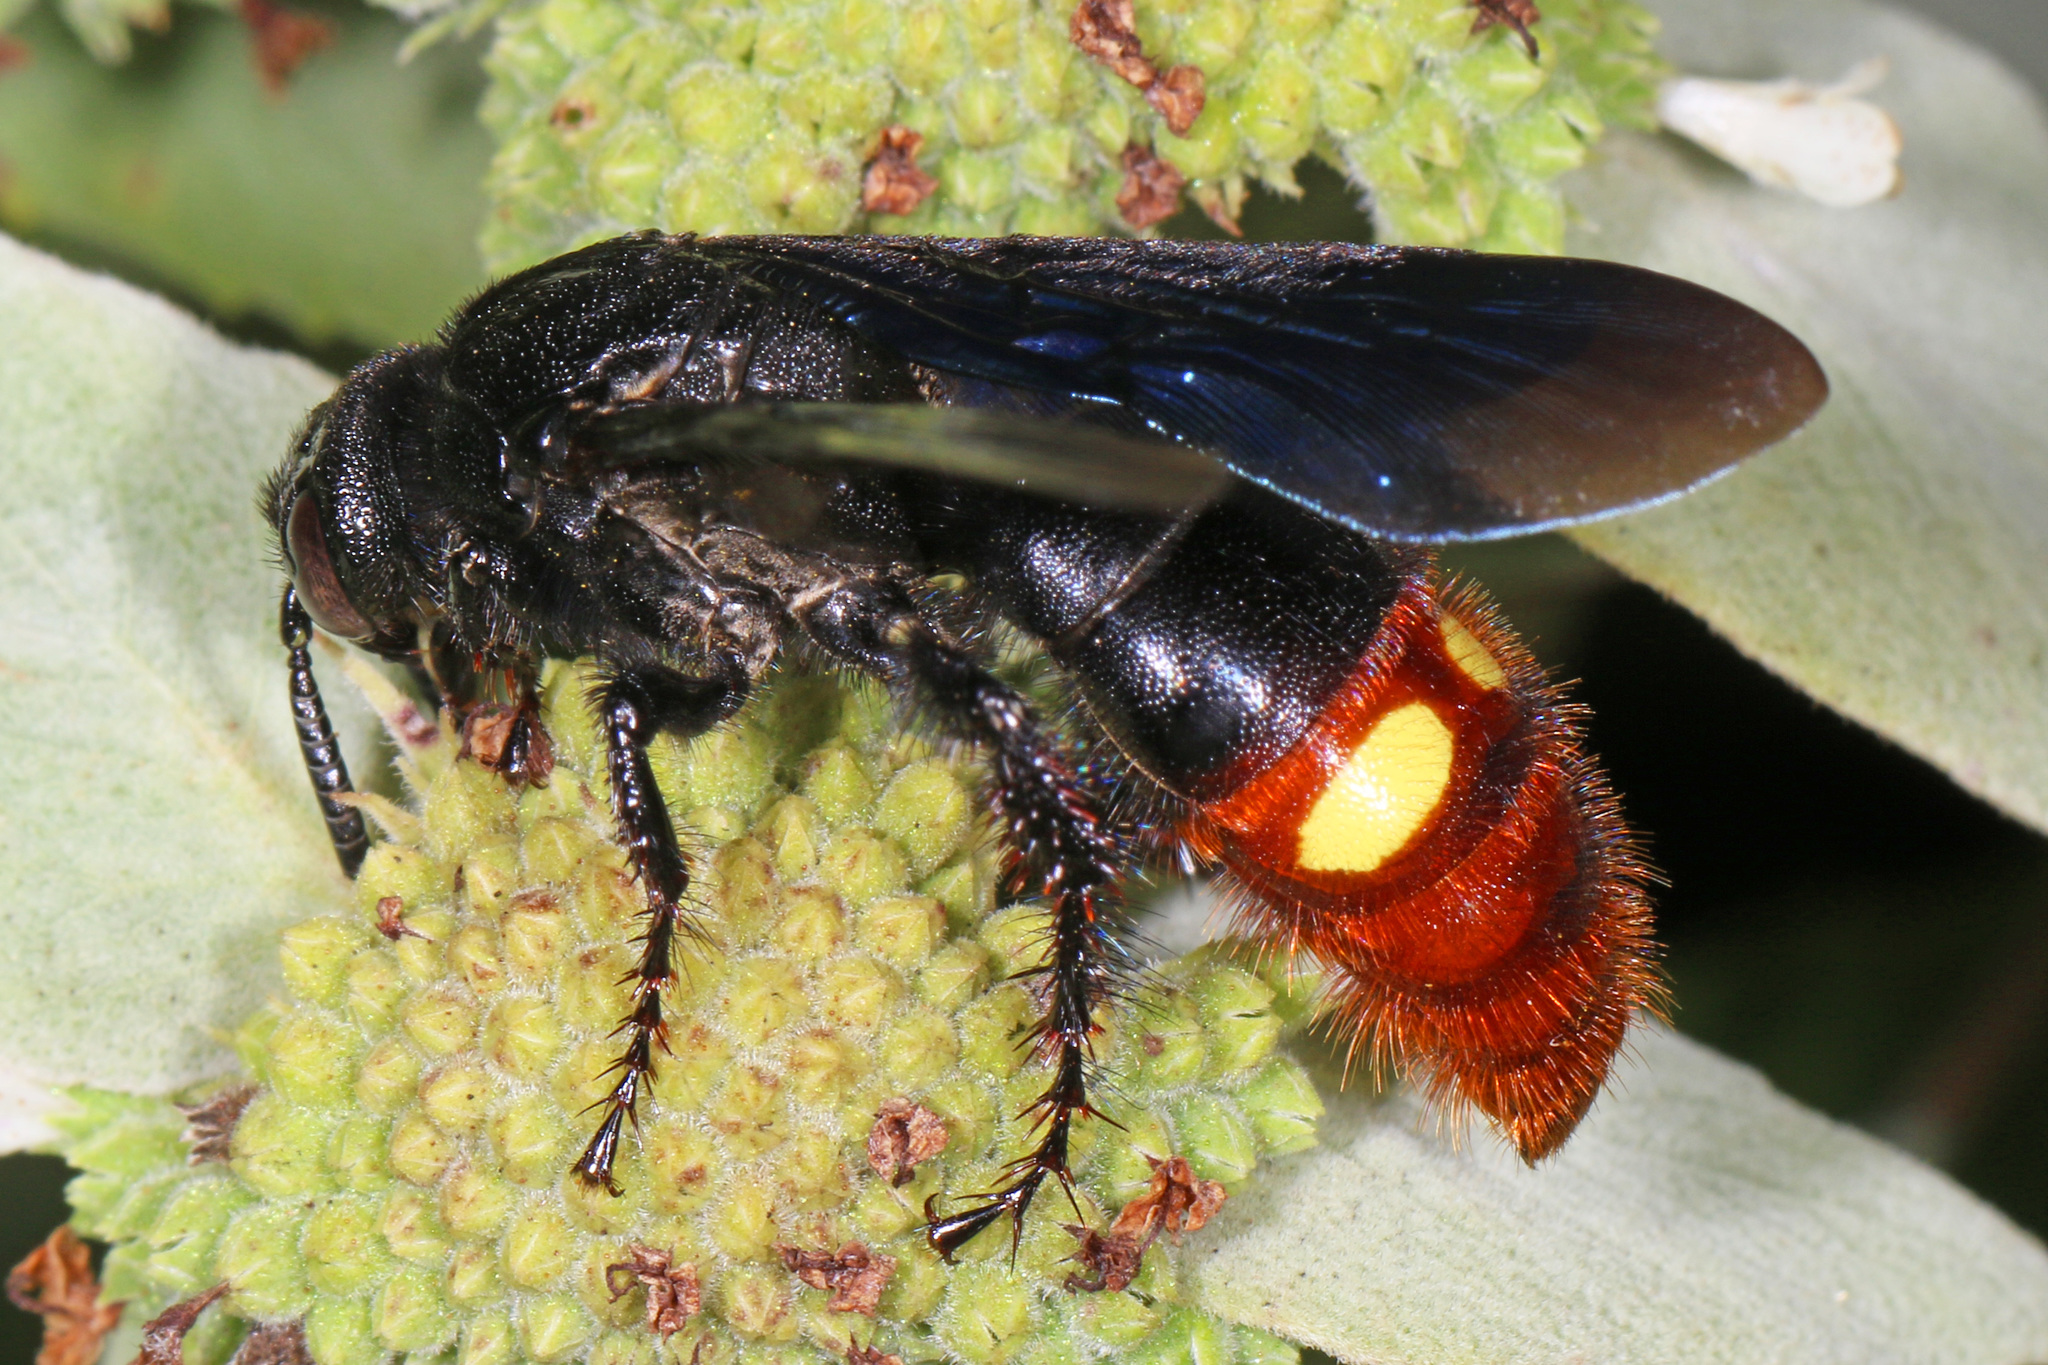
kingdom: Animalia
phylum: Arthropoda
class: Insecta
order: Hymenoptera
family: Scoliidae
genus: Scolia
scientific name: Scolia dubia
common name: Blue-winged scoliid wasp
